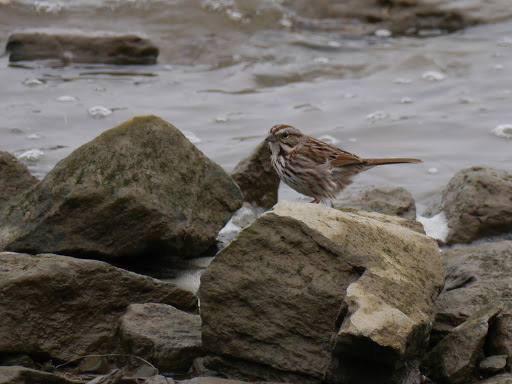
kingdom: Animalia
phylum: Chordata
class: Aves
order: Passeriformes
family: Passerellidae
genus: Melospiza
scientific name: Melospiza melodia
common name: Song sparrow
